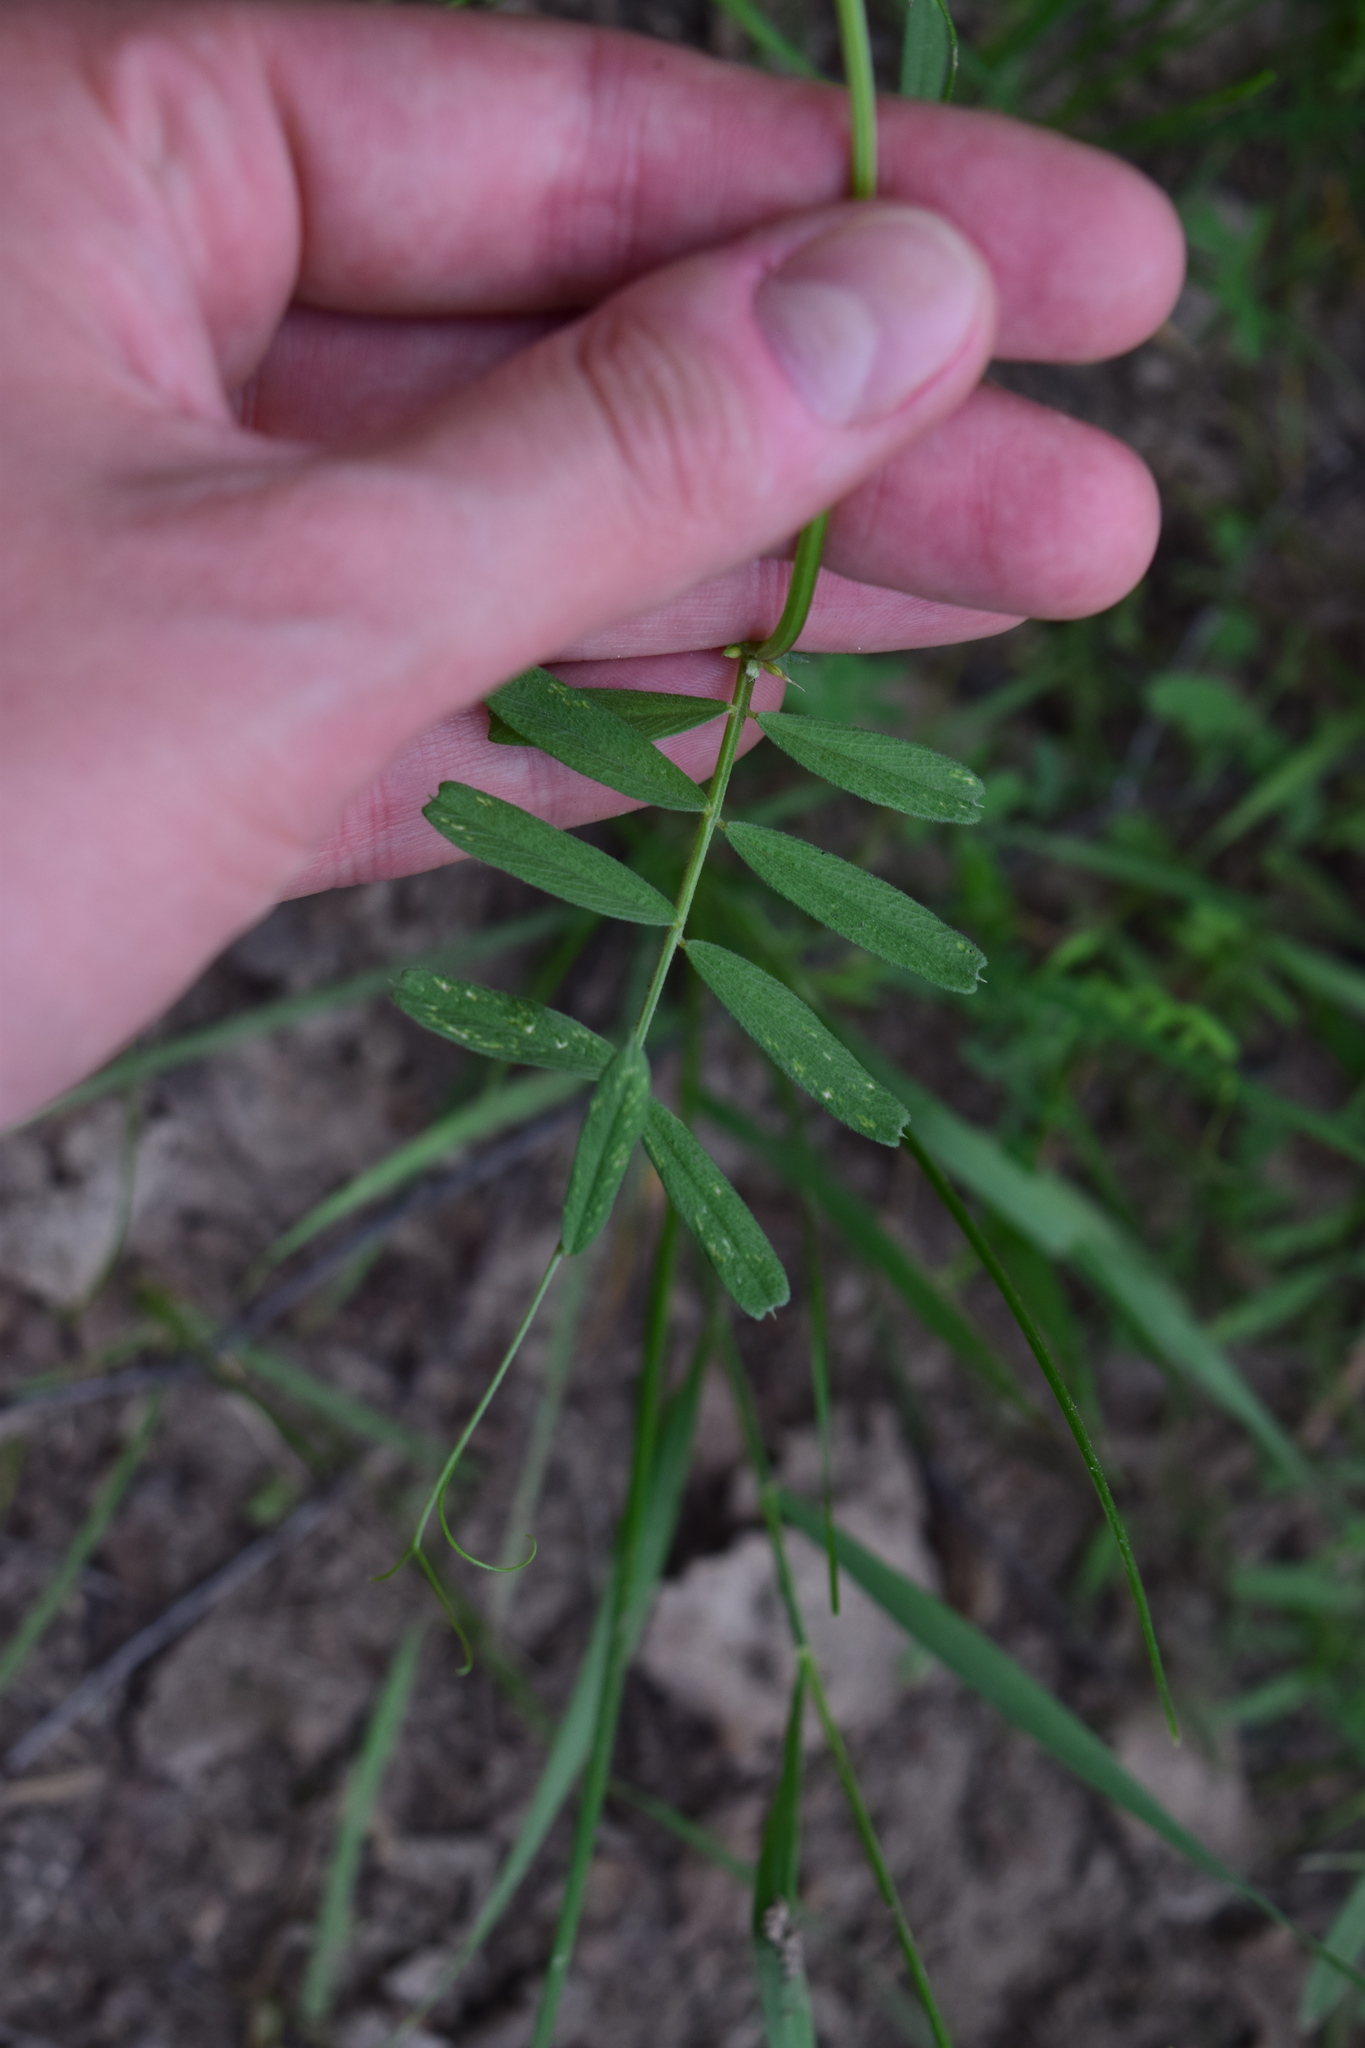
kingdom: Plantae
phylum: Tracheophyta
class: Magnoliopsida
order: Fabales
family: Fabaceae
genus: Vicia
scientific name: Vicia sativa
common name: Garden vetch
